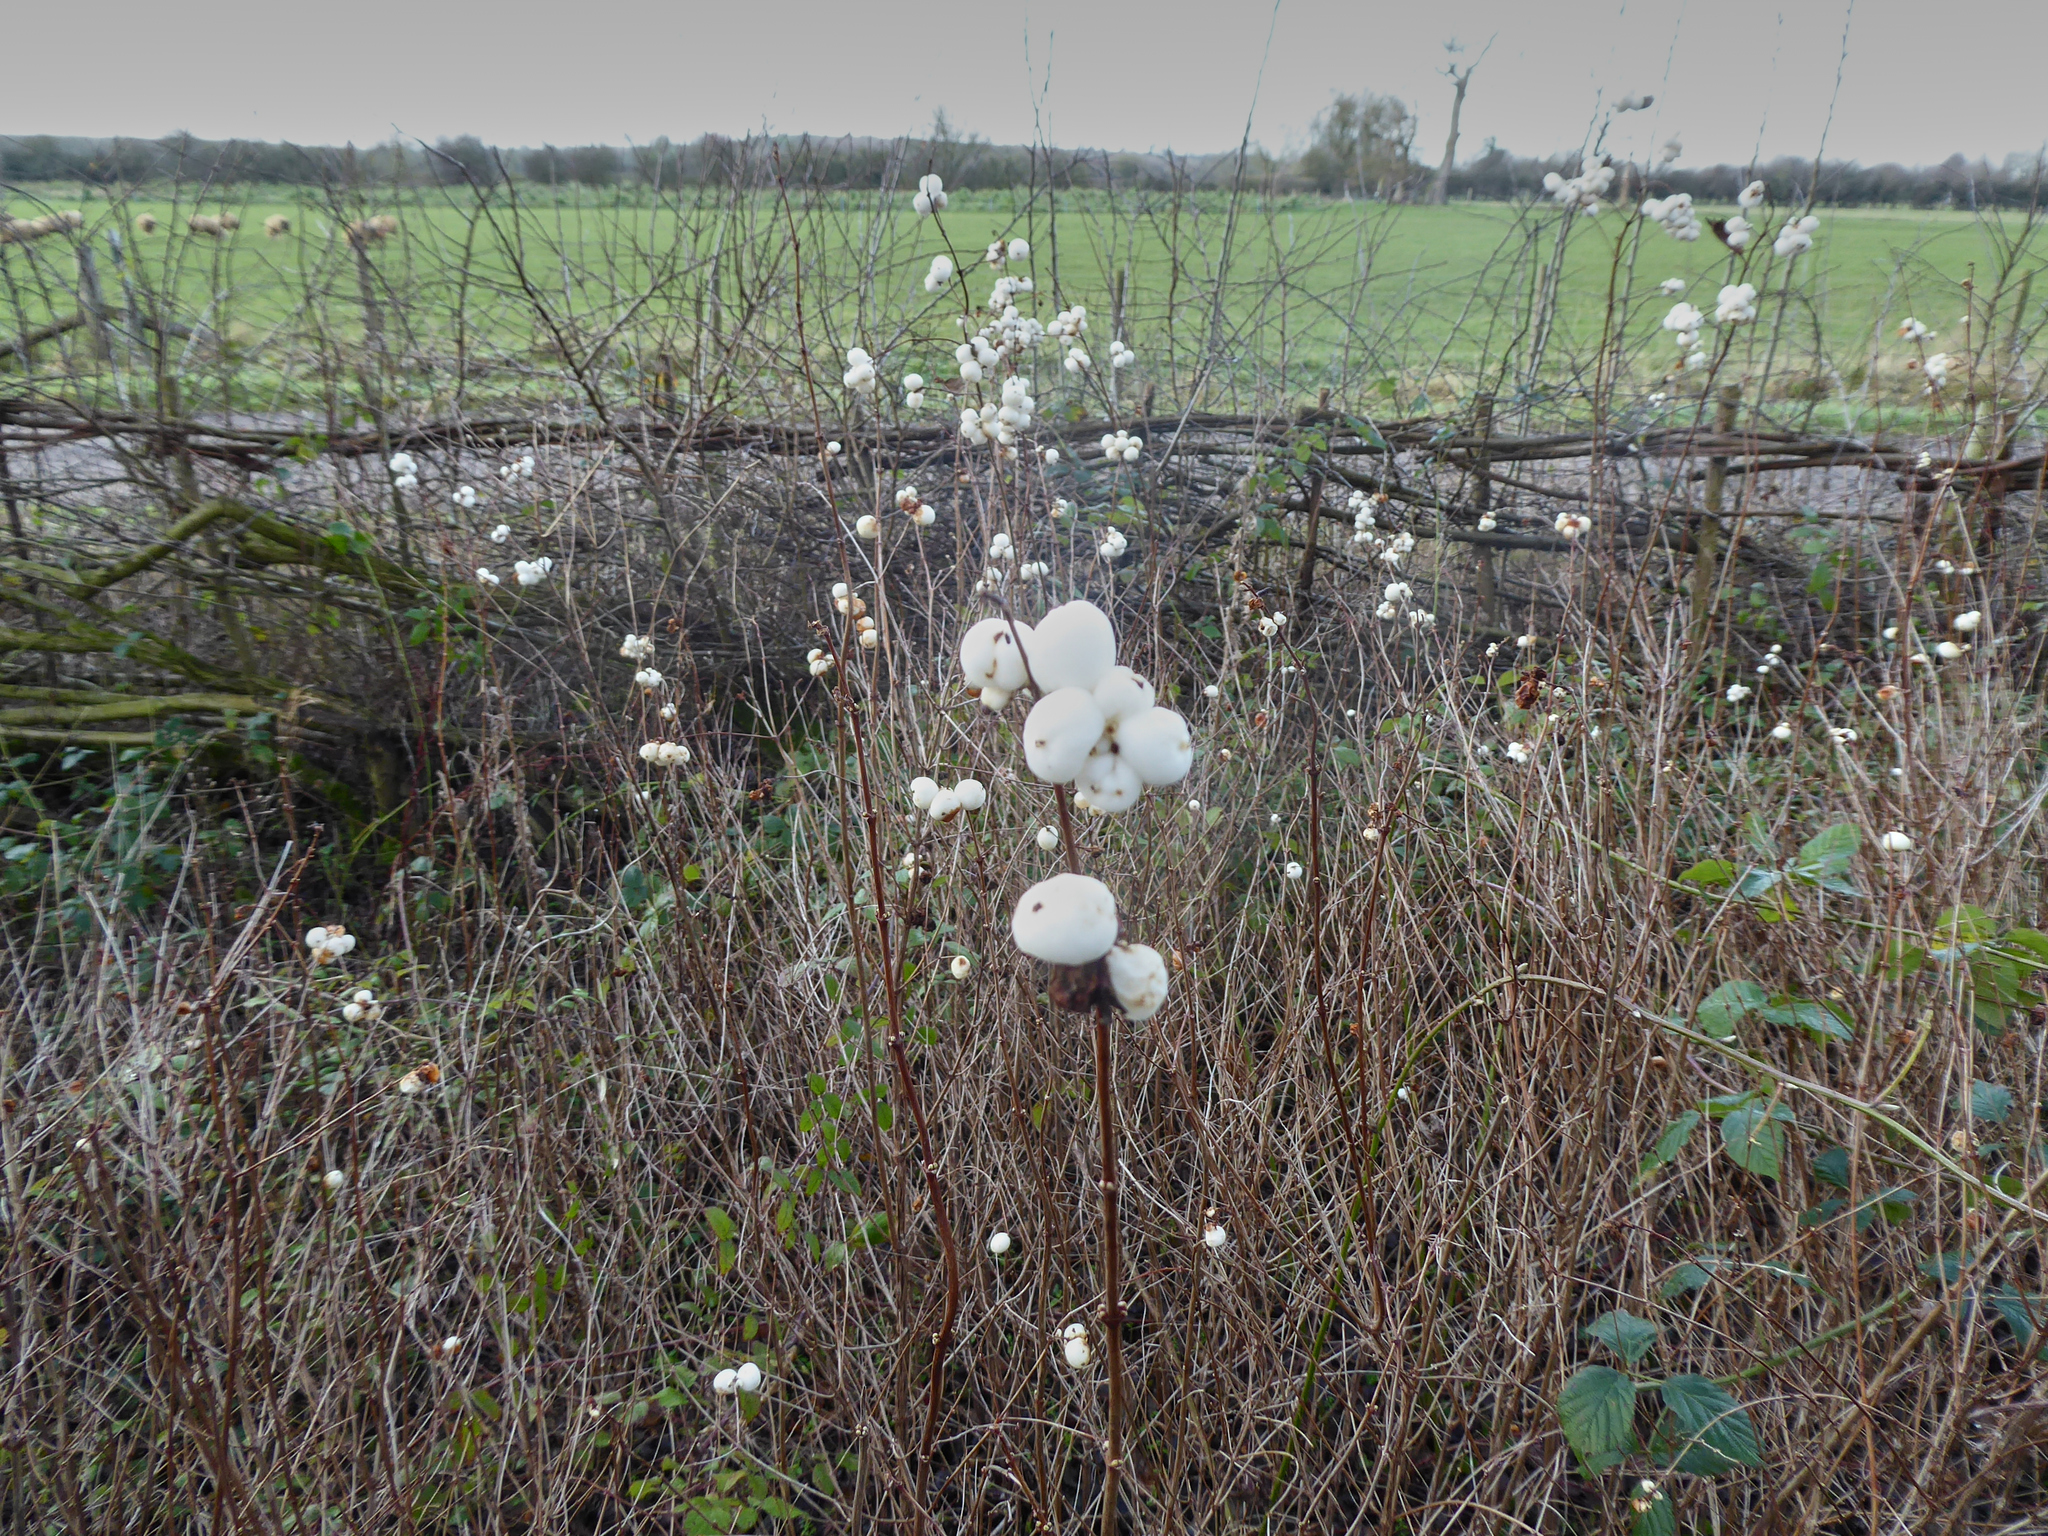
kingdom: Plantae
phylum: Tracheophyta
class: Magnoliopsida
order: Dipsacales
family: Caprifoliaceae
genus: Symphoricarpos
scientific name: Symphoricarpos albus
